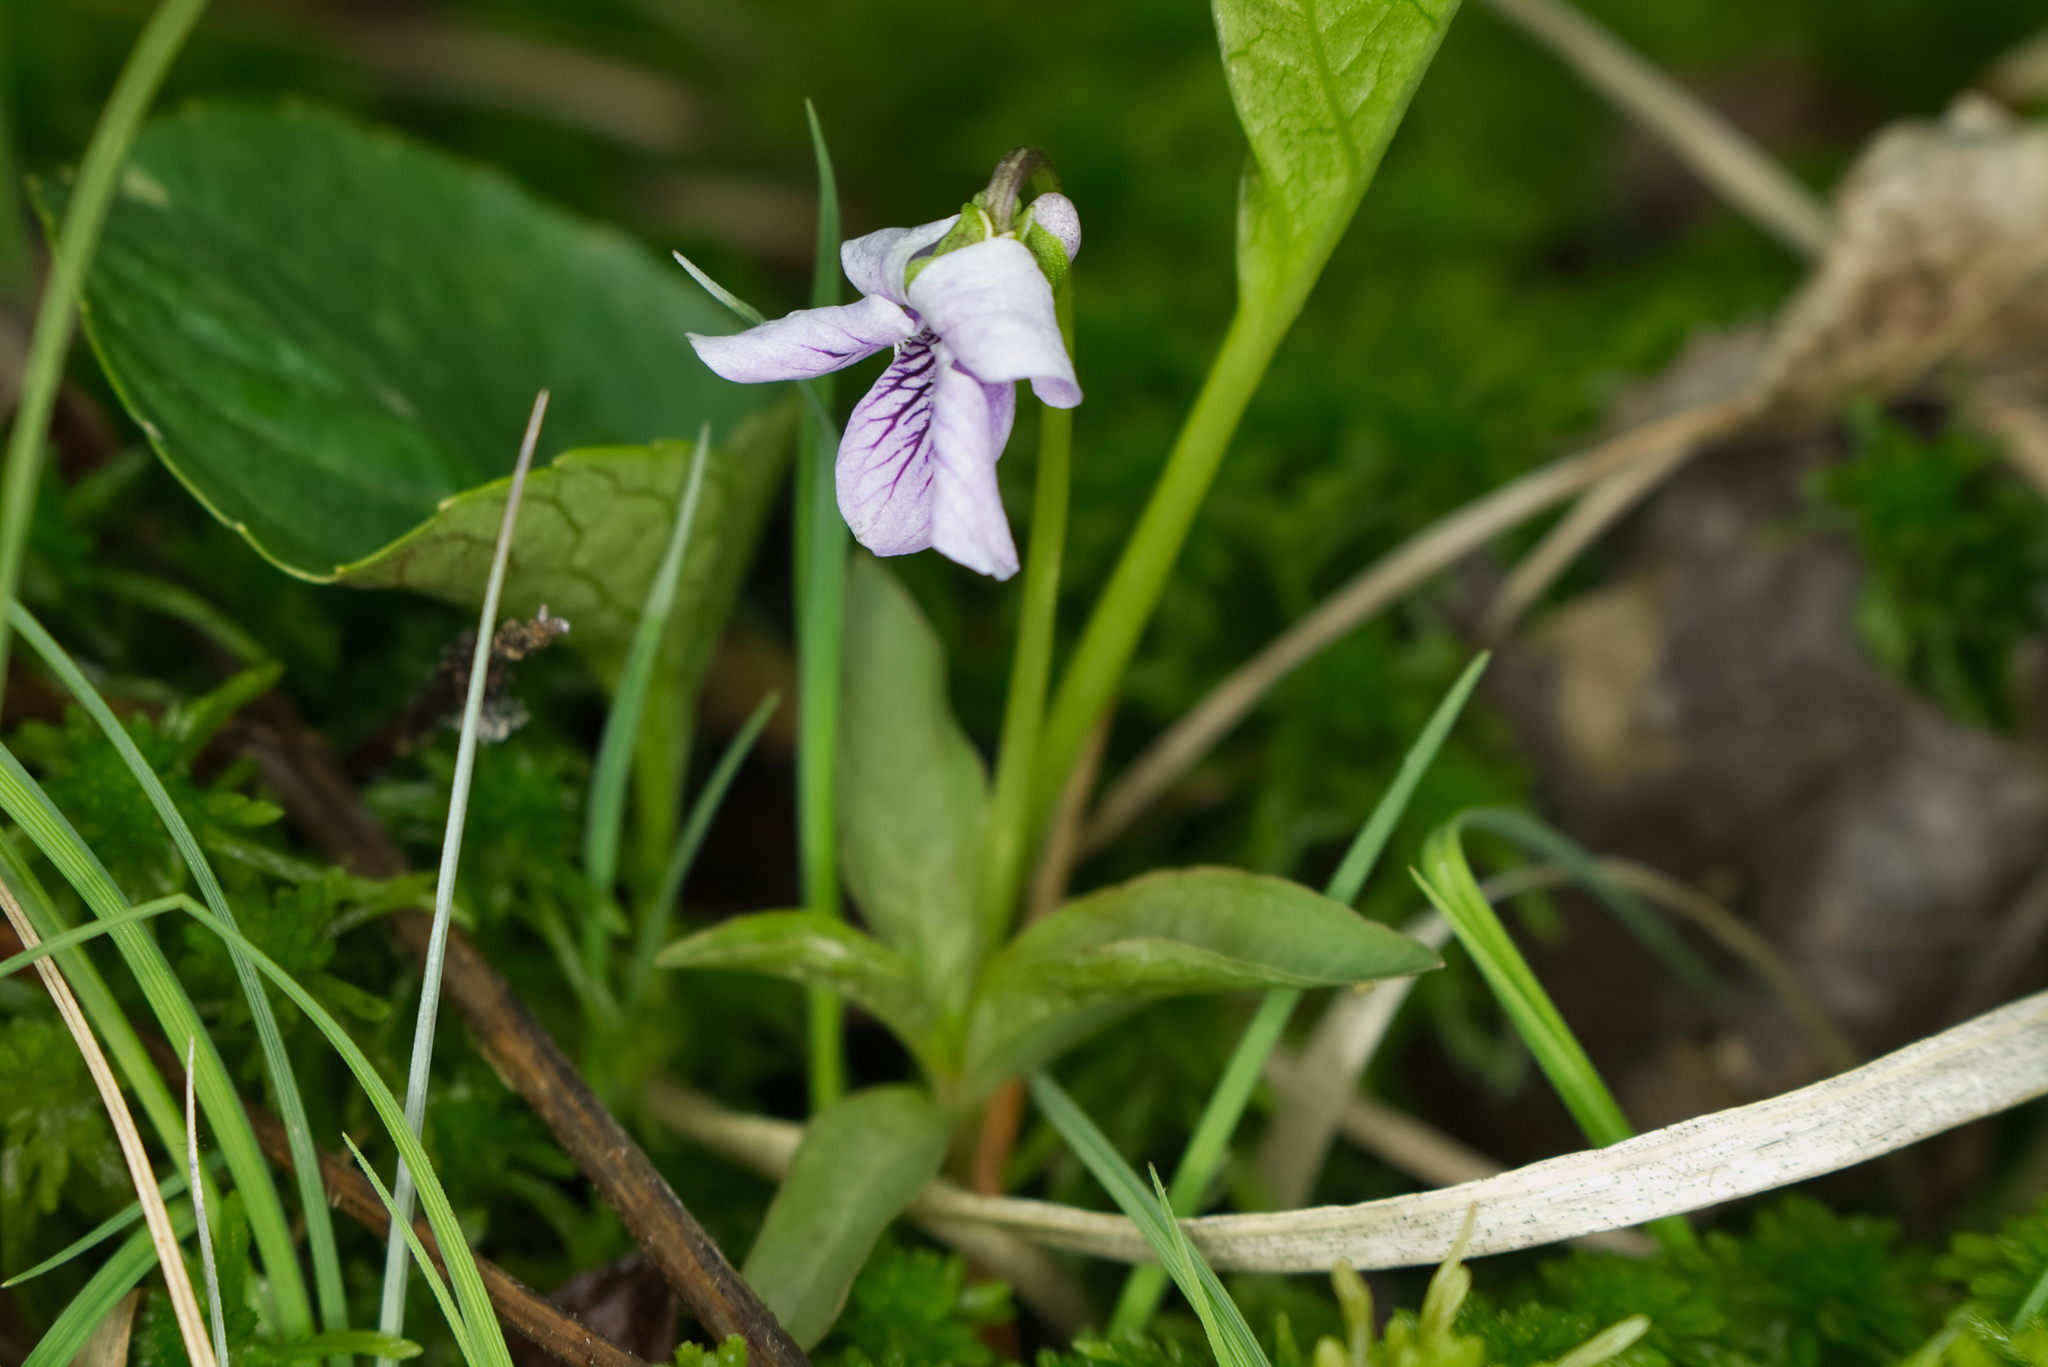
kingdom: Plantae
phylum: Tracheophyta
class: Magnoliopsida
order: Malpighiales
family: Violaceae
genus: Viola
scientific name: Viola palustris
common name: Marsh violet
